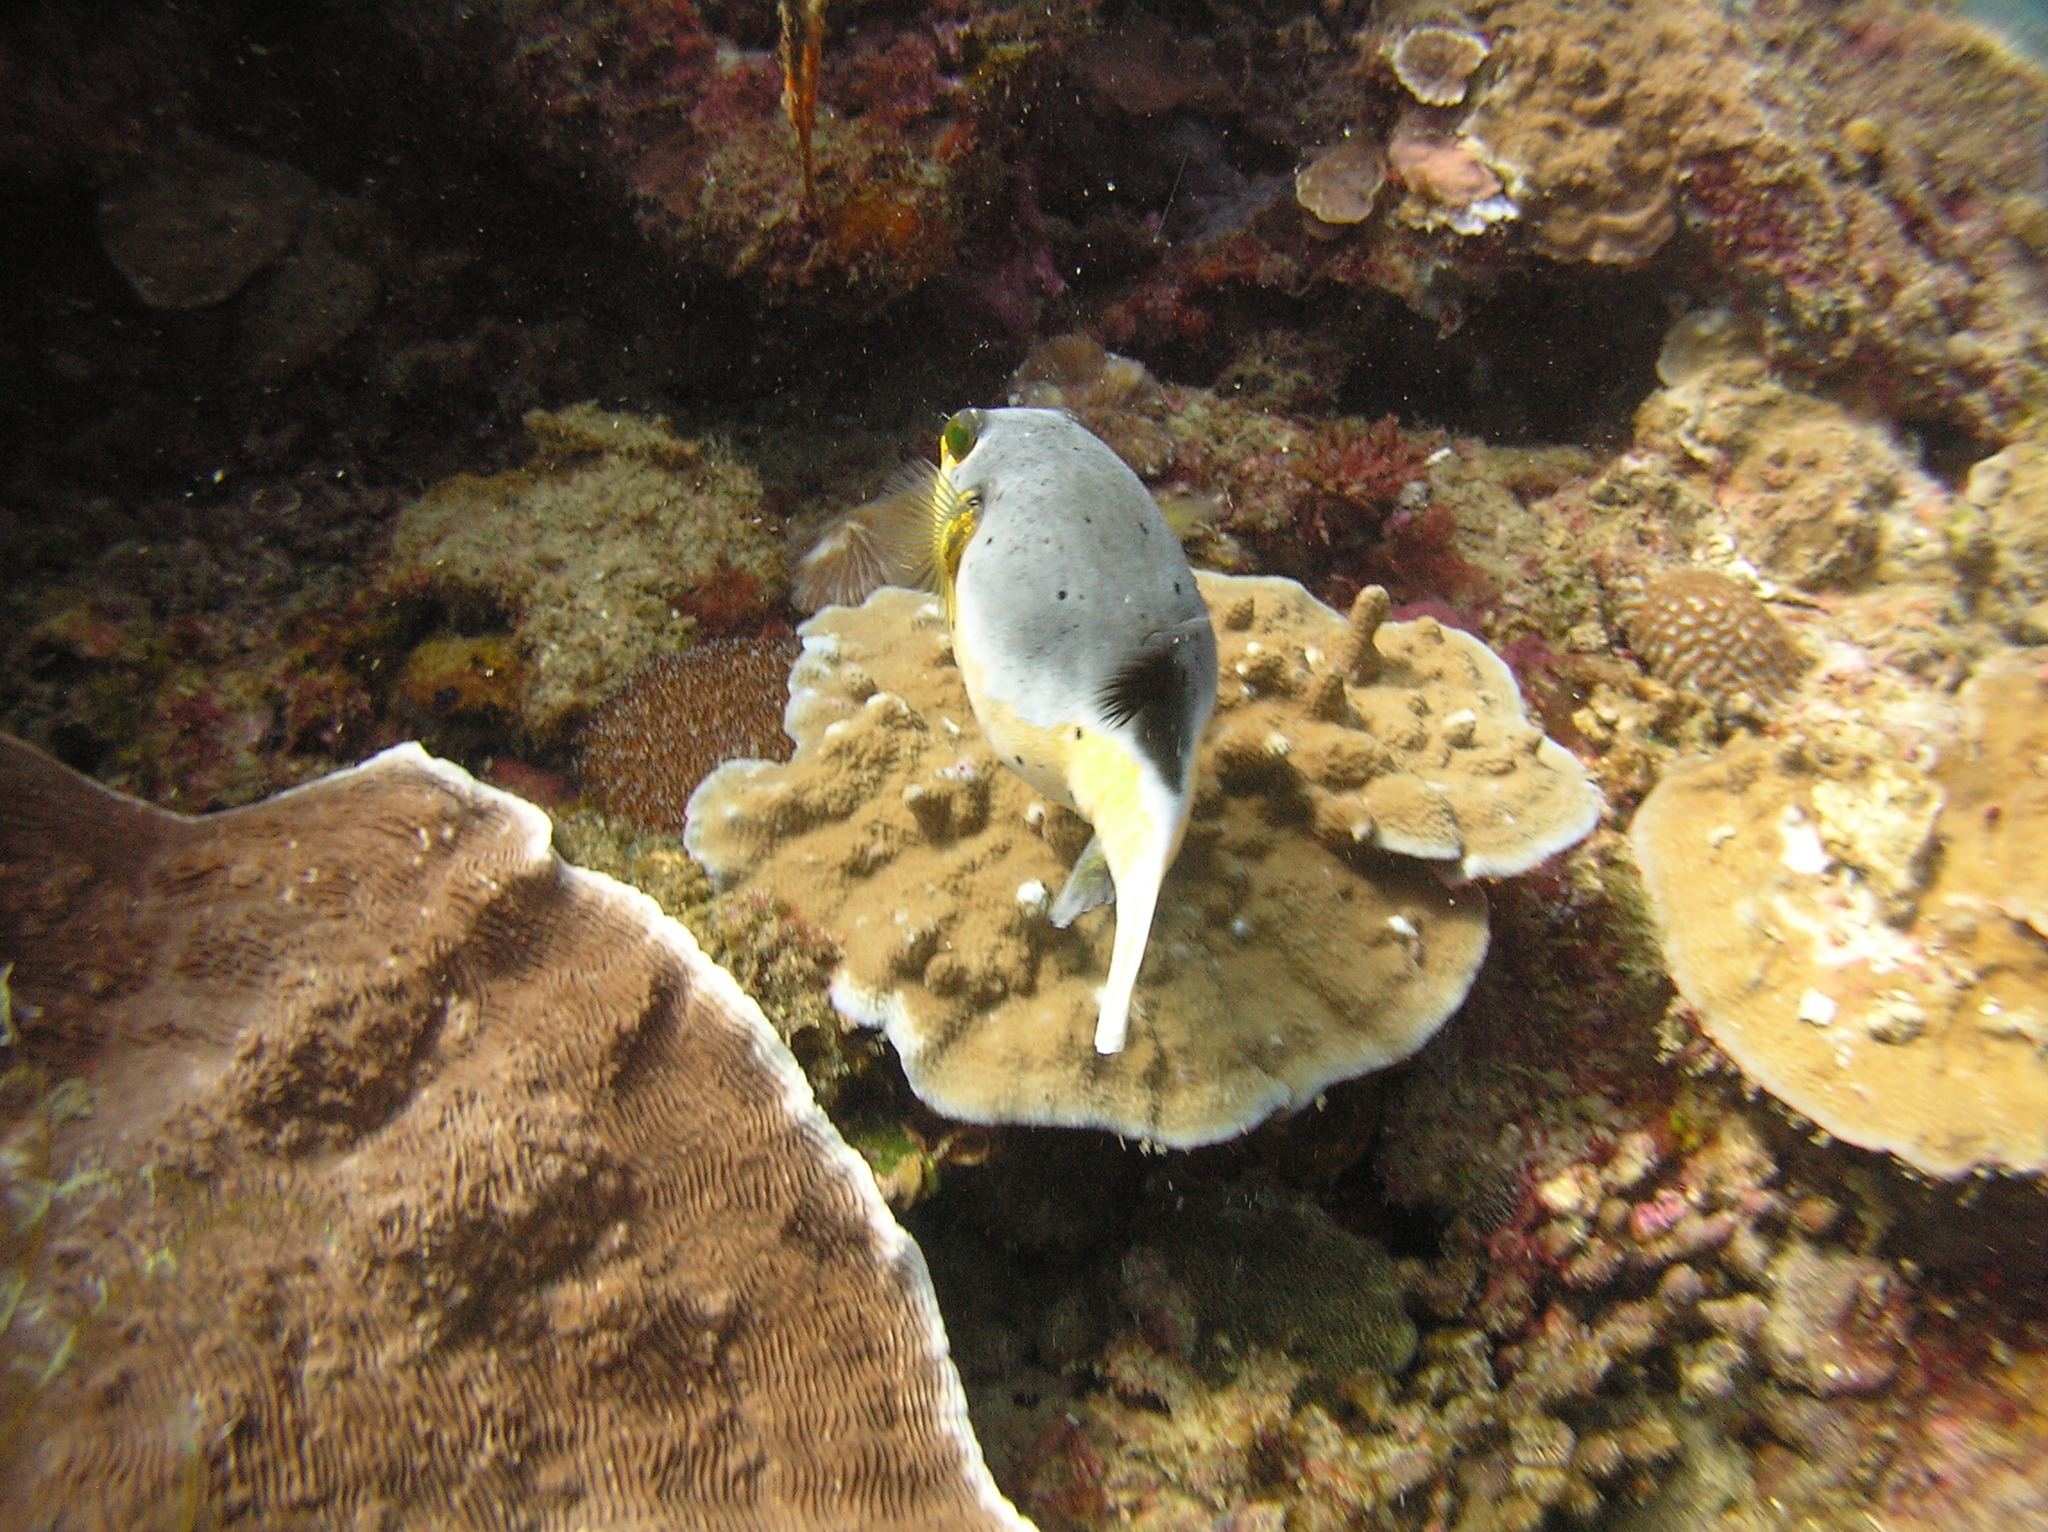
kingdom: Animalia
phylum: Chordata
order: Tetraodontiformes
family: Tetraodontidae
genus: Arothron
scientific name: Arothron nigropunctatus
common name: Black spotted blow fish
